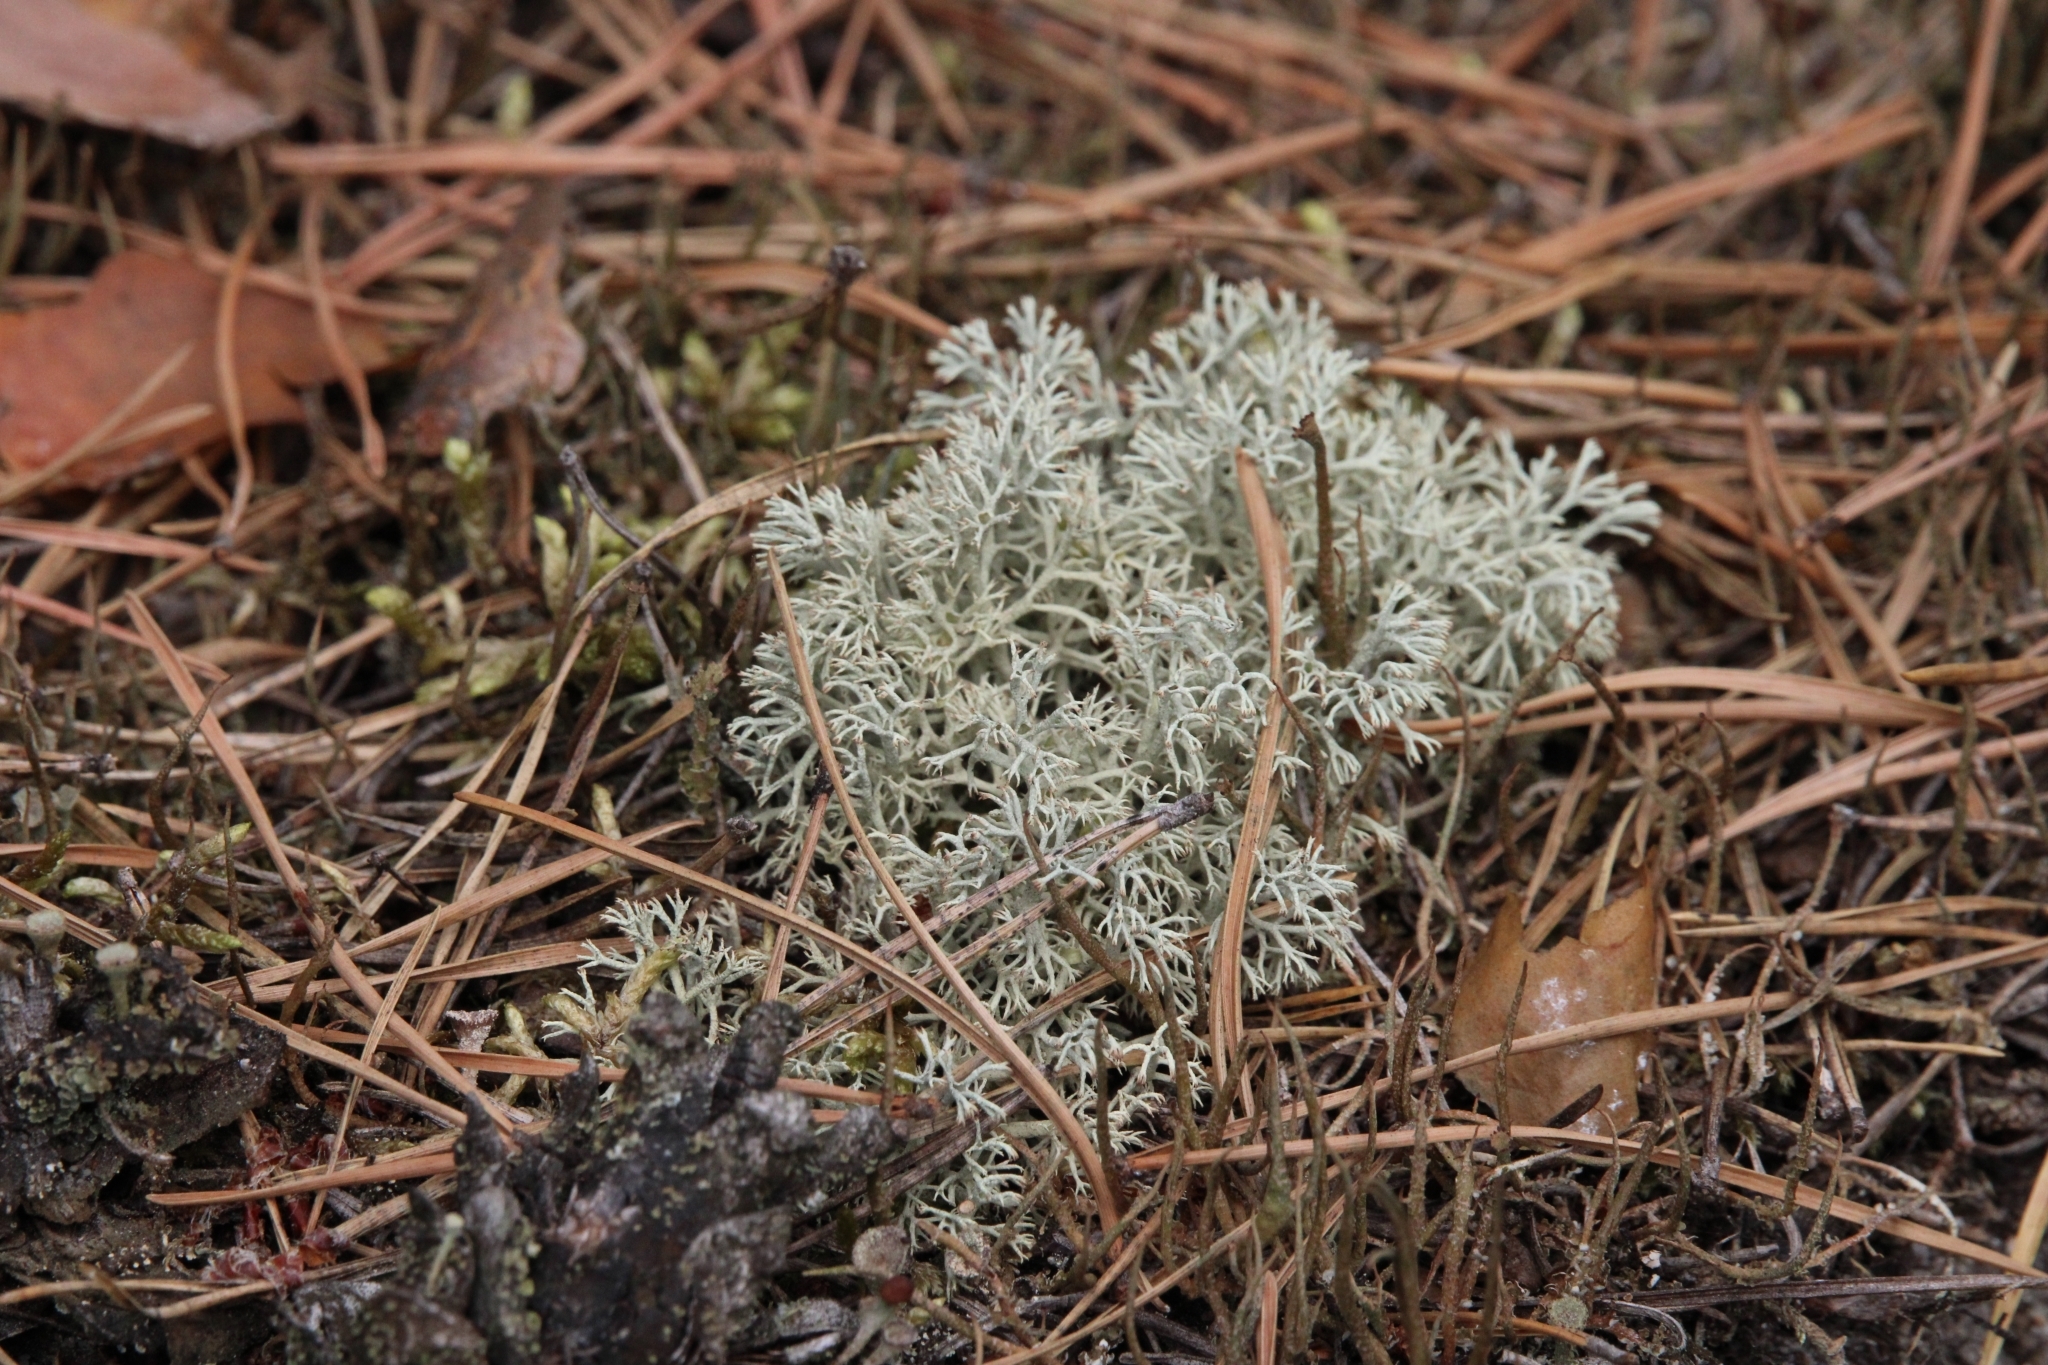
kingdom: Fungi
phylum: Ascomycota
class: Lecanoromycetes
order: Lecanorales
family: Cladoniaceae
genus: Cladonia
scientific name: Cladonia arbuscula
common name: Reindeer lichen
